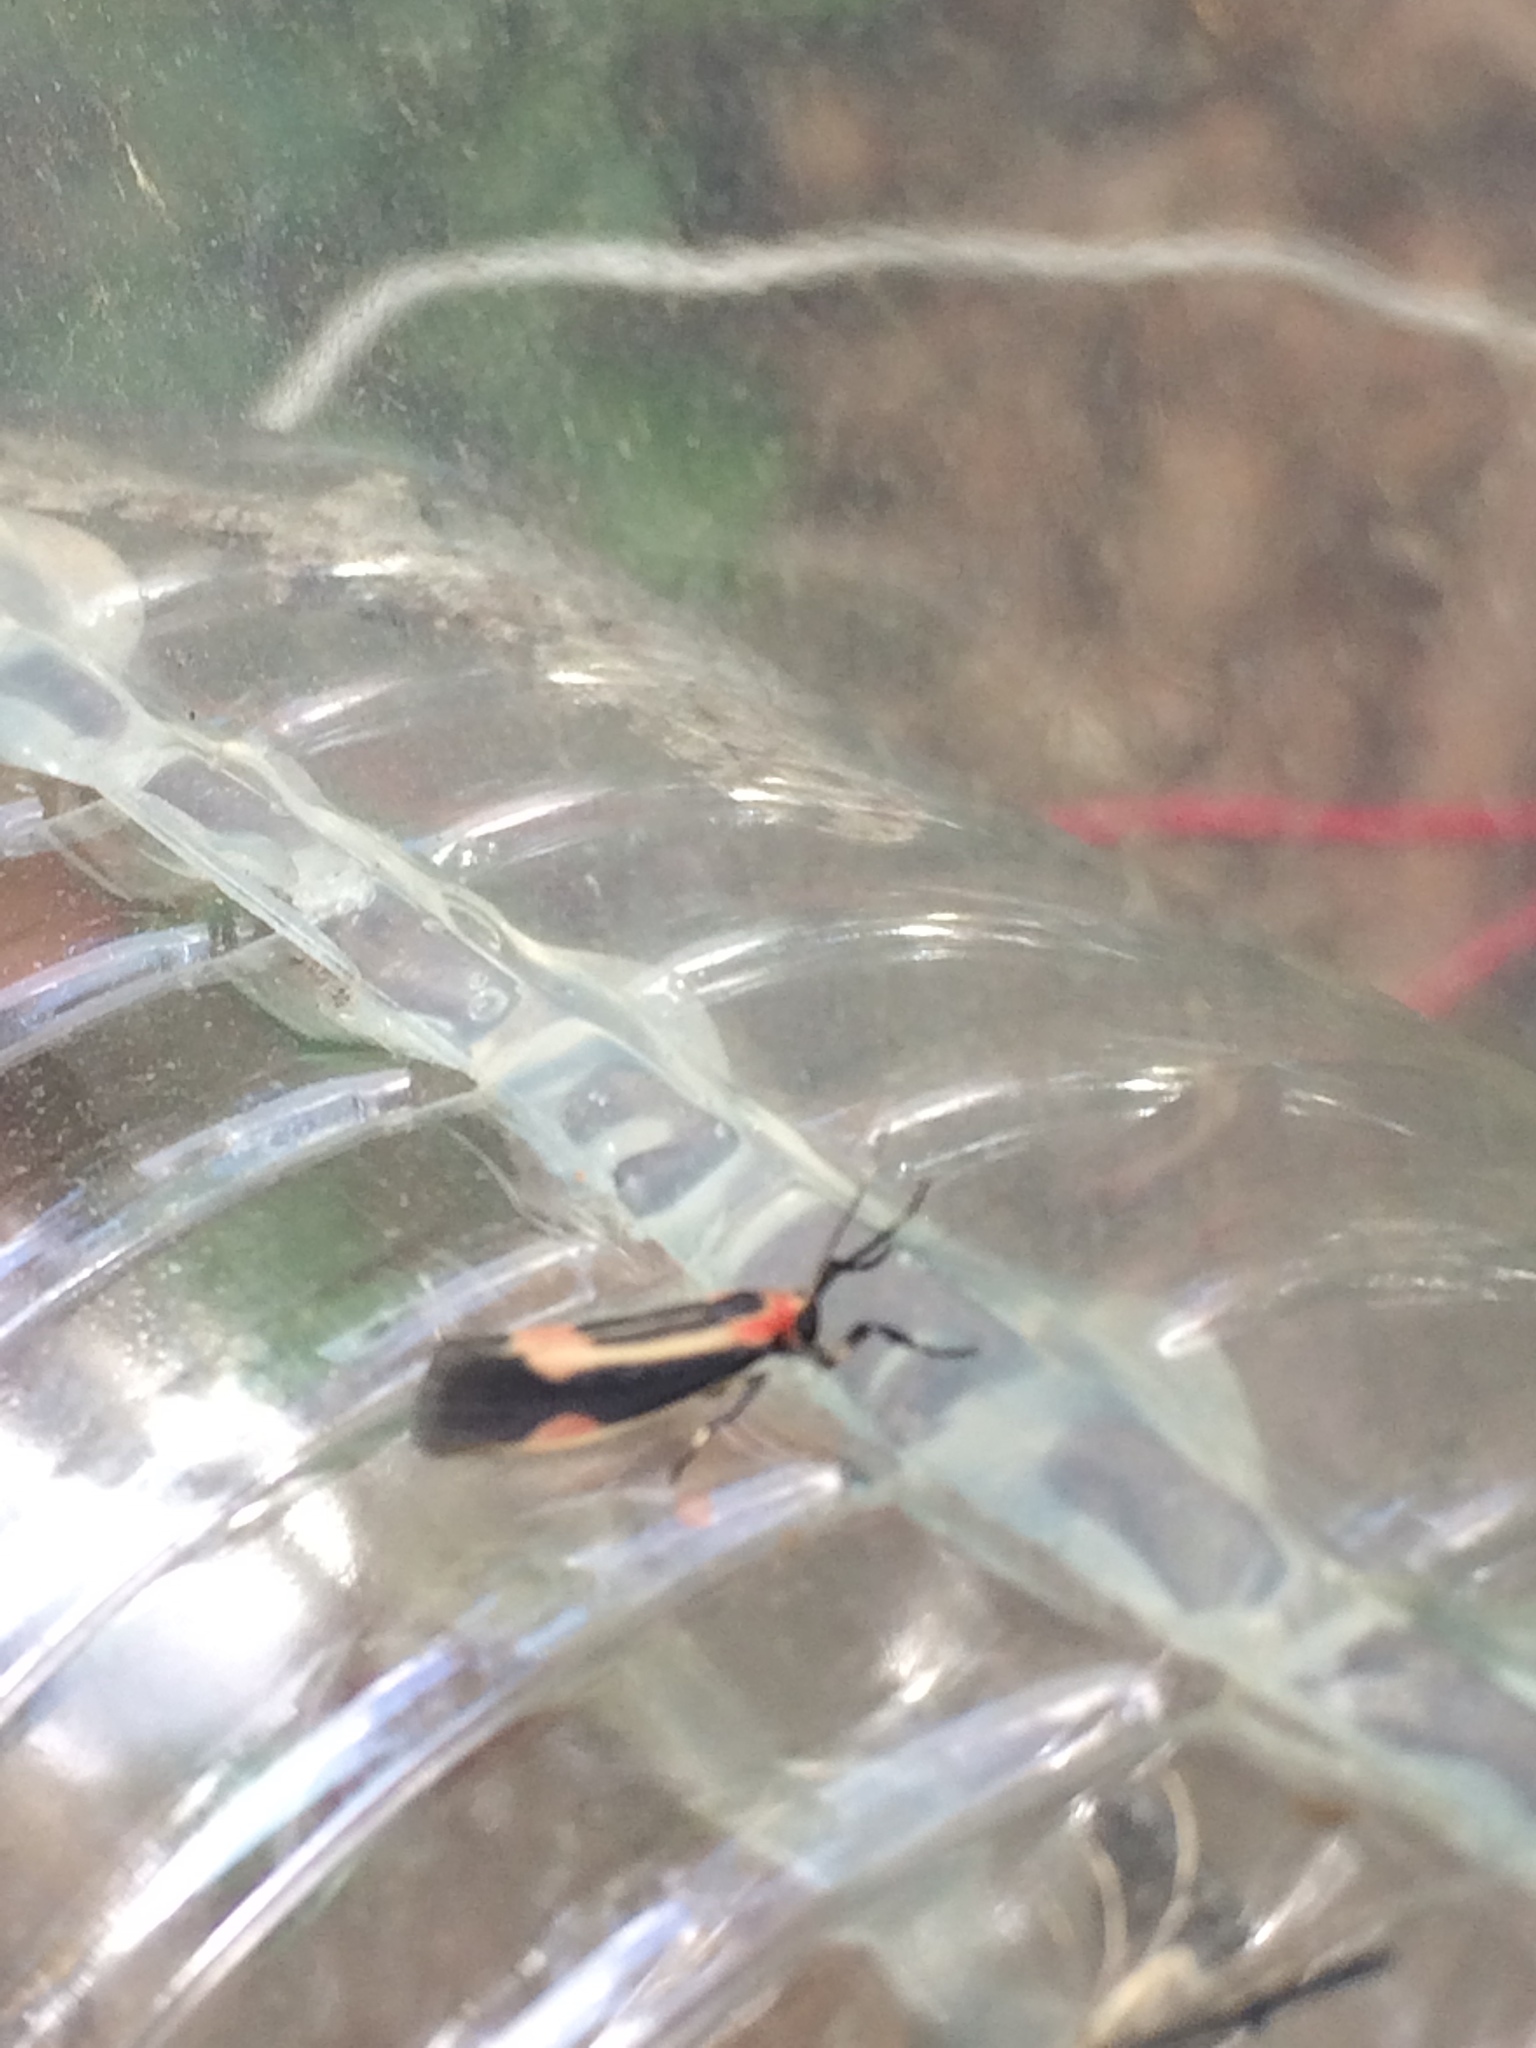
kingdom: Animalia
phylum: Arthropoda
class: Insecta
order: Lepidoptera
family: Erebidae
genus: Cisthene
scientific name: Cisthene packardii
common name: Packard's lichen moth
